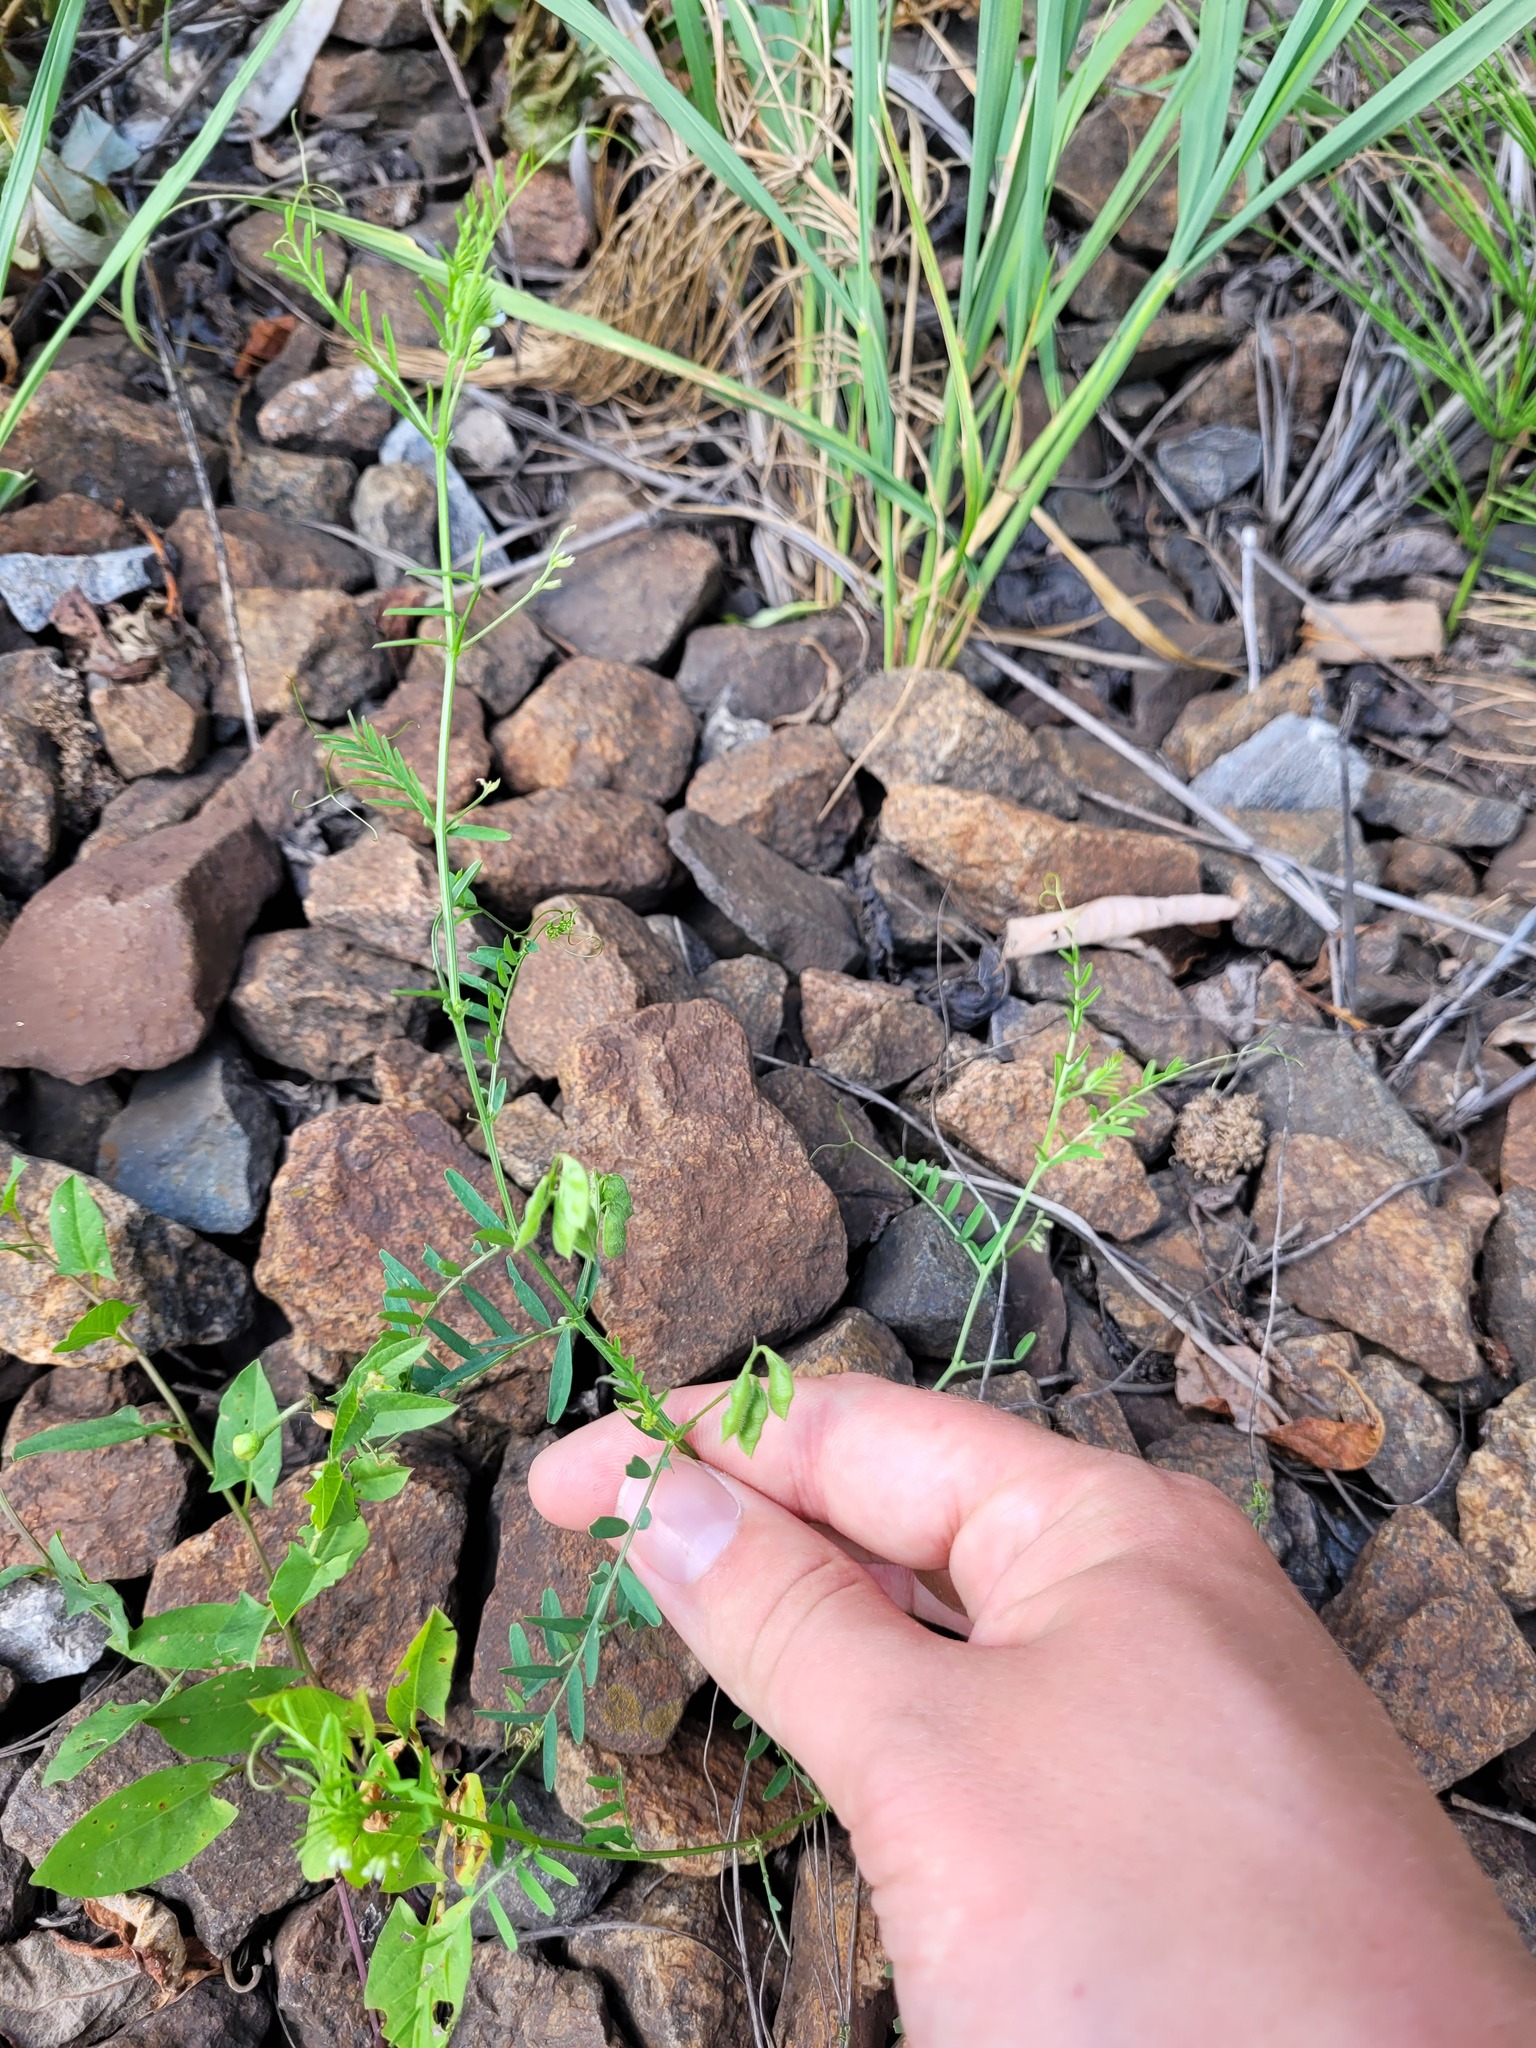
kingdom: Plantae
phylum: Tracheophyta
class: Magnoliopsida
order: Fabales
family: Fabaceae
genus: Vicia
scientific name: Vicia hirsuta
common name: Tiny vetch
